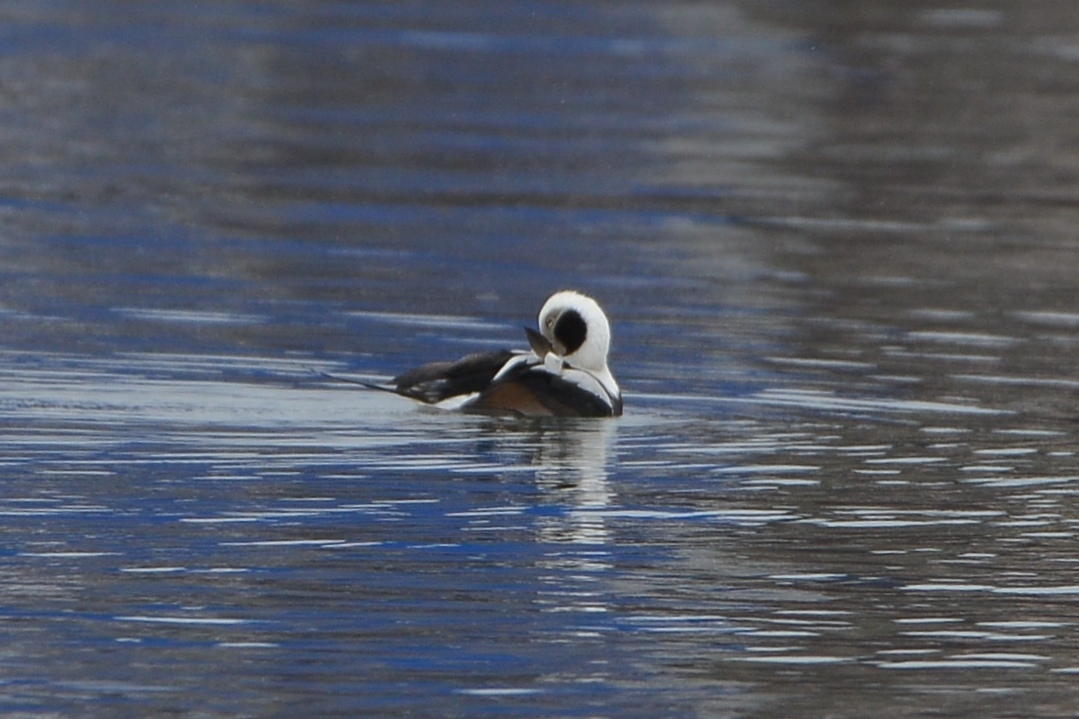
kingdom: Animalia
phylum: Chordata
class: Aves
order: Anseriformes
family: Anatidae
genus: Clangula
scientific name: Clangula hyemalis
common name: Long-tailed duck
